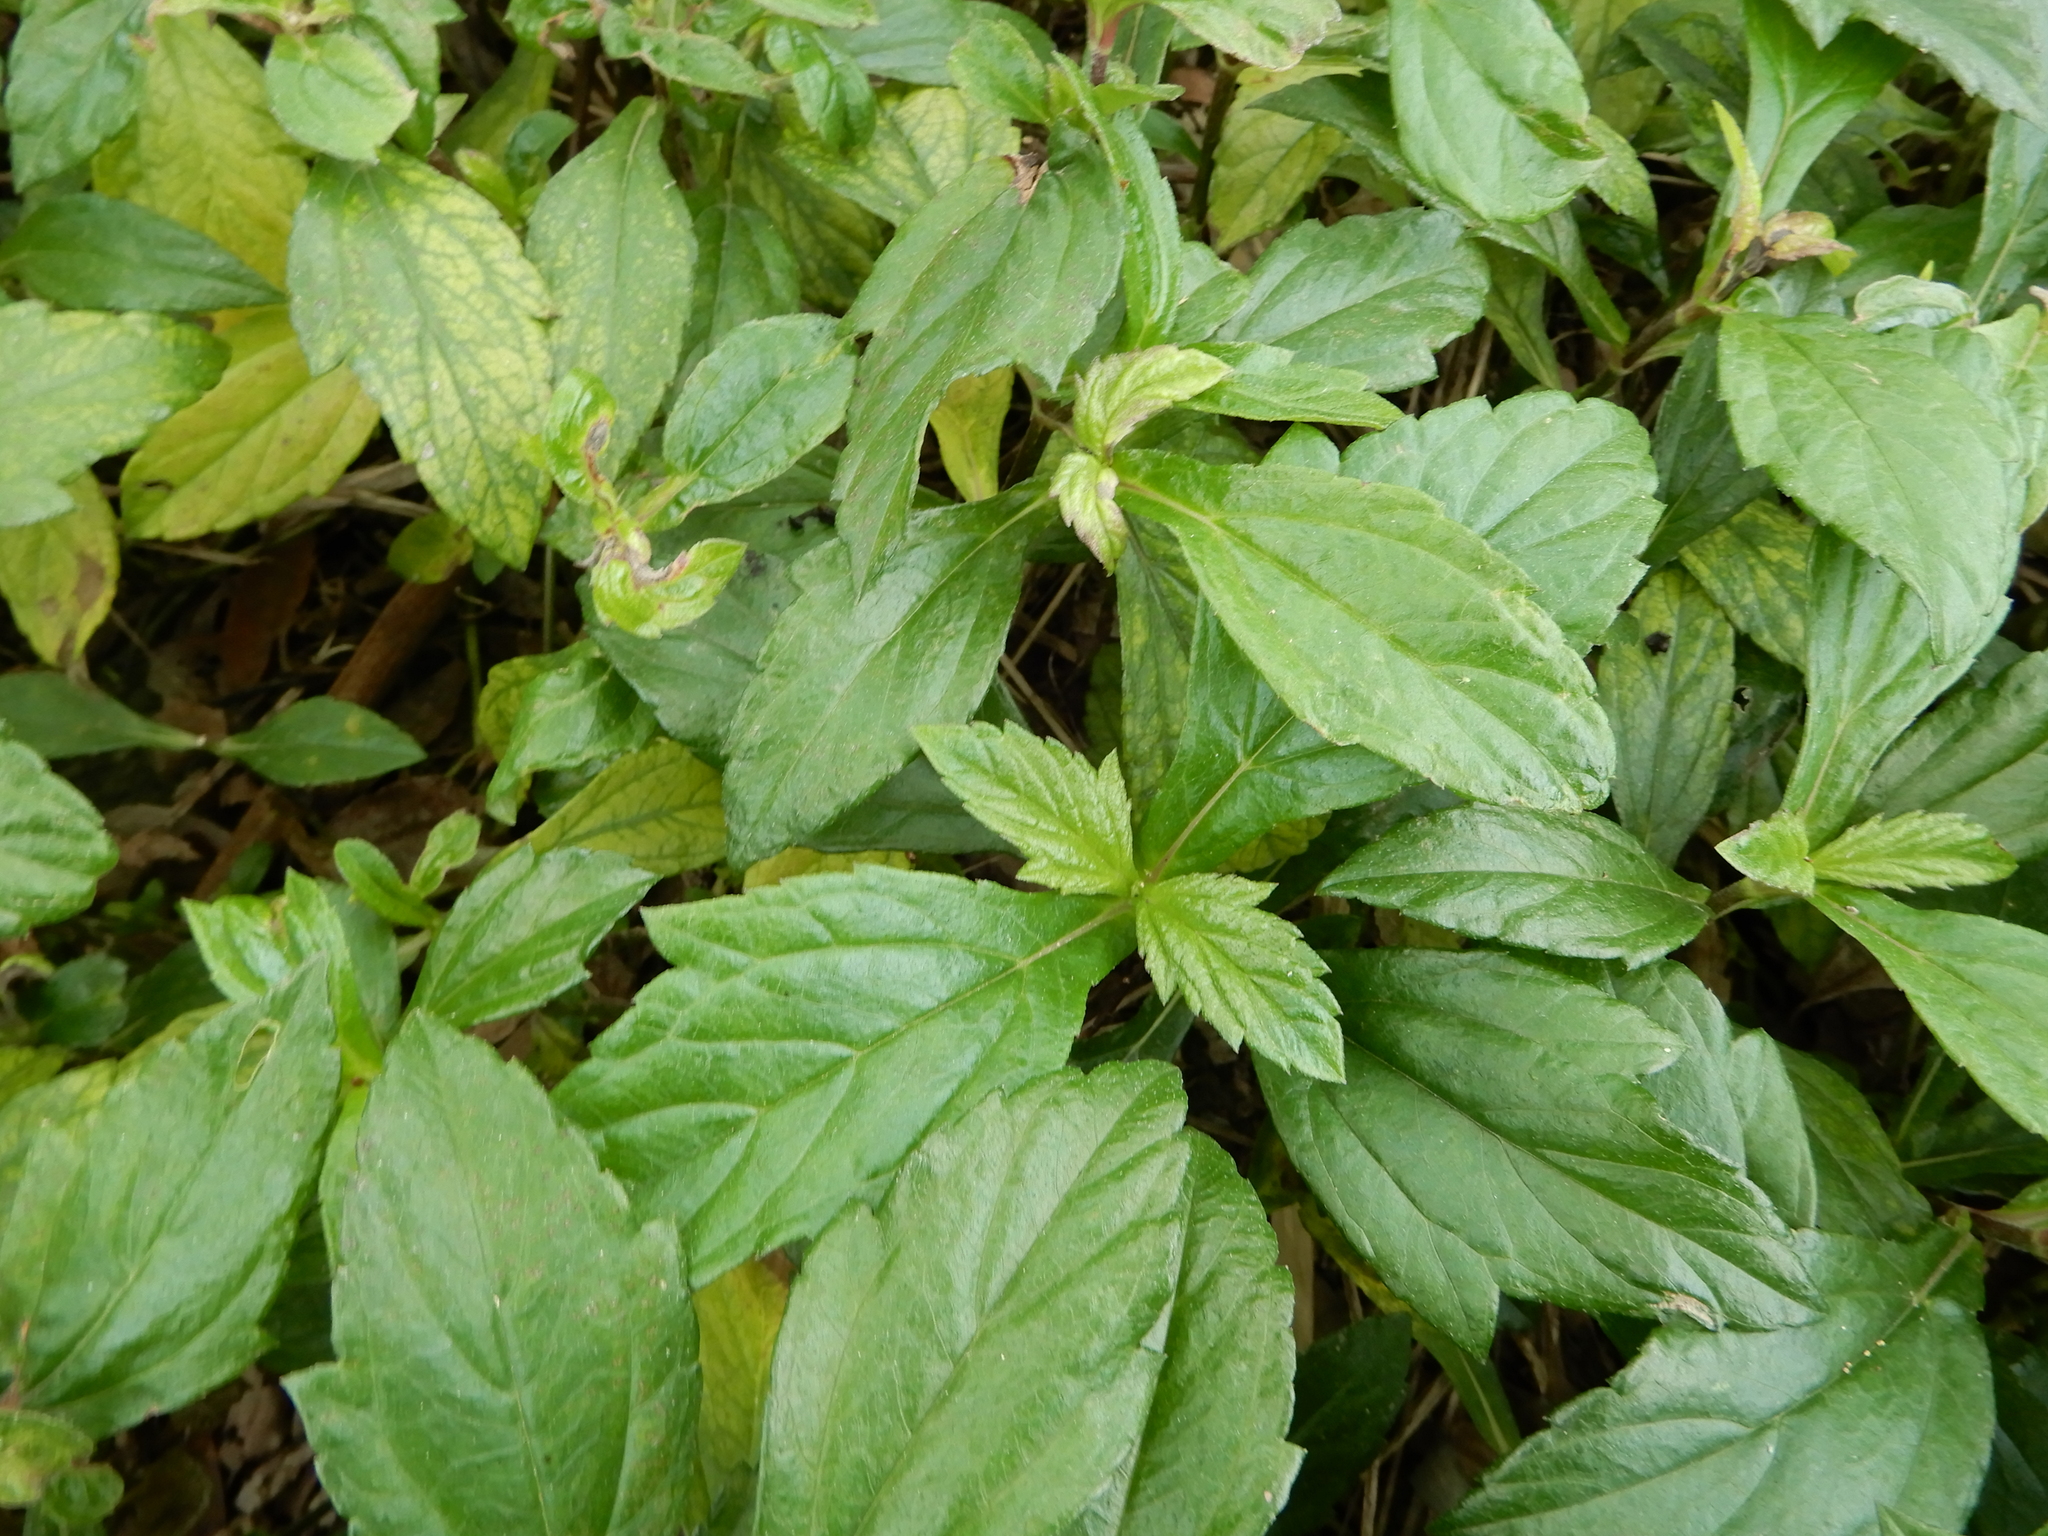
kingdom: Plantae
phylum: Tracheophyta
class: Magnoliopsida
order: Asterales
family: Asteraceae
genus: Sphagneticola
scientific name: Sphagneticola trilobata
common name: Bay biscayne creeping-oxeye
